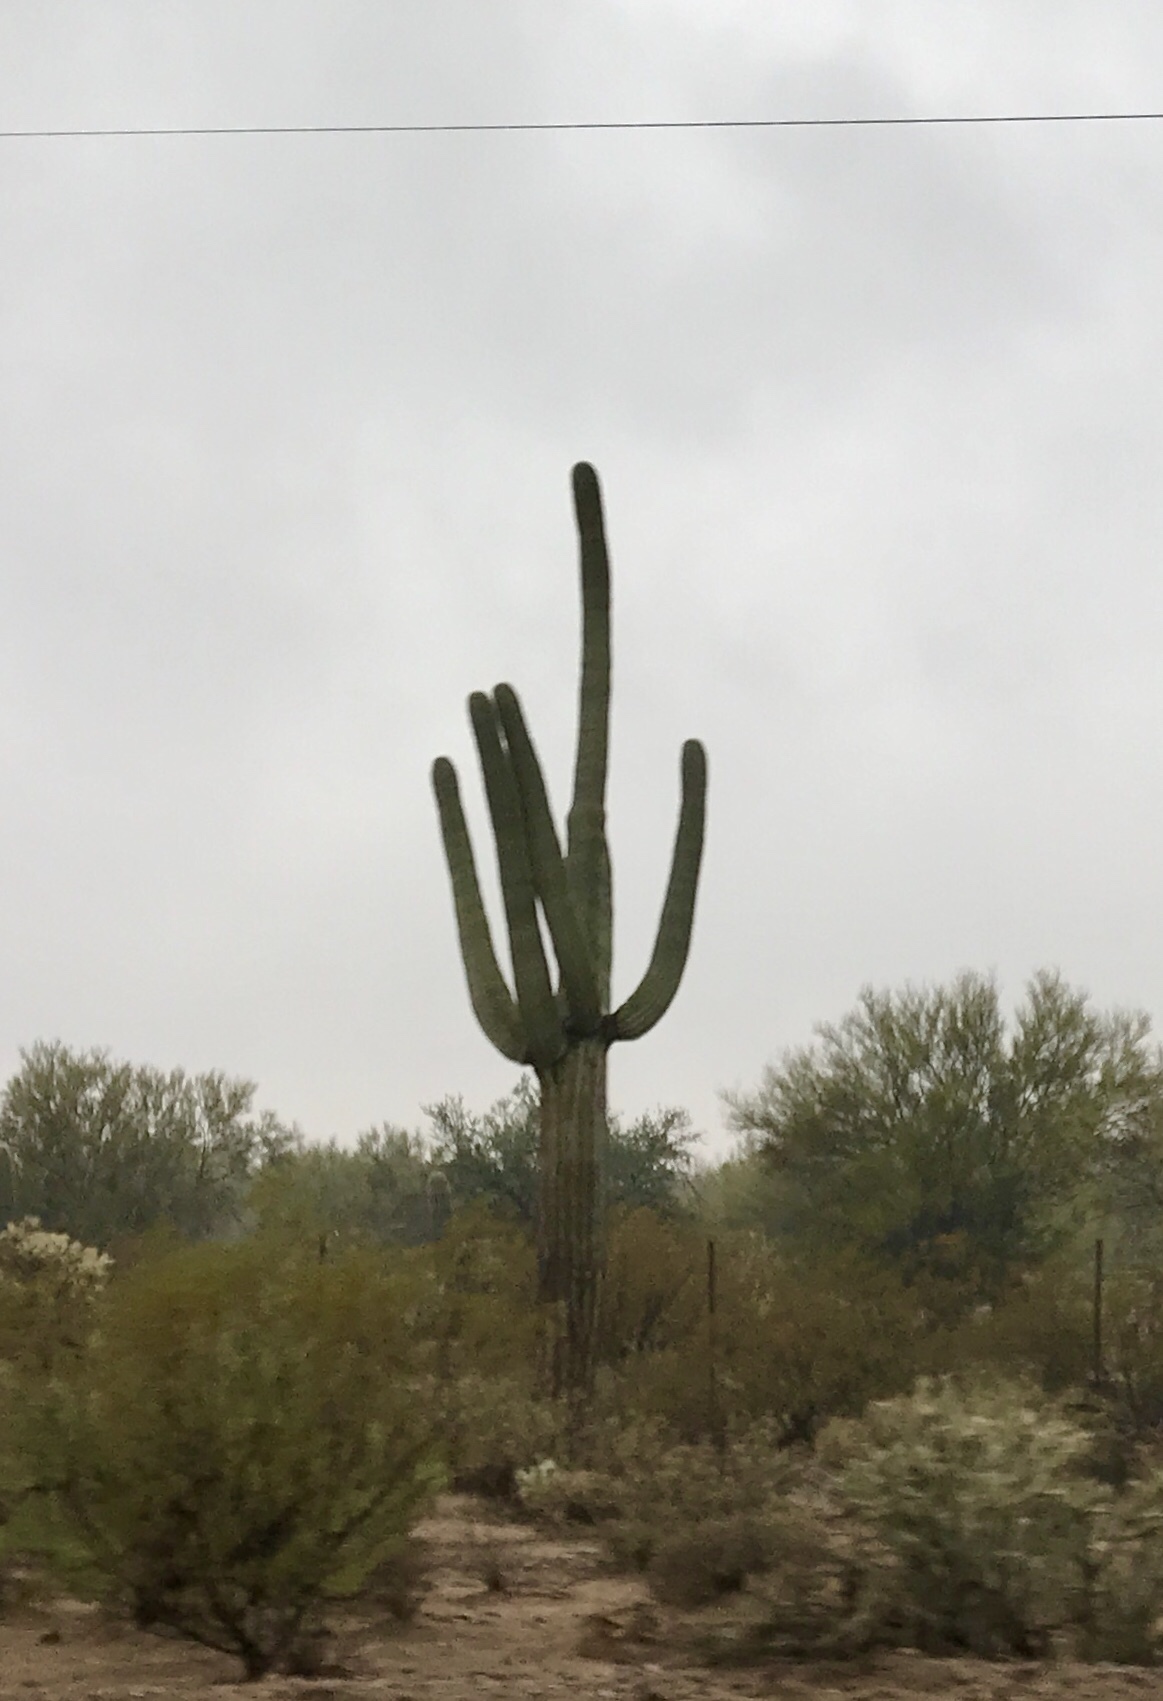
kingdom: Plantae
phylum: Tracheophyta
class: Magnoliopsida
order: Caryophyllales
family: Cactaceae
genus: Carnegiea
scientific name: Carnegiea gigantea
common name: Saguaro
